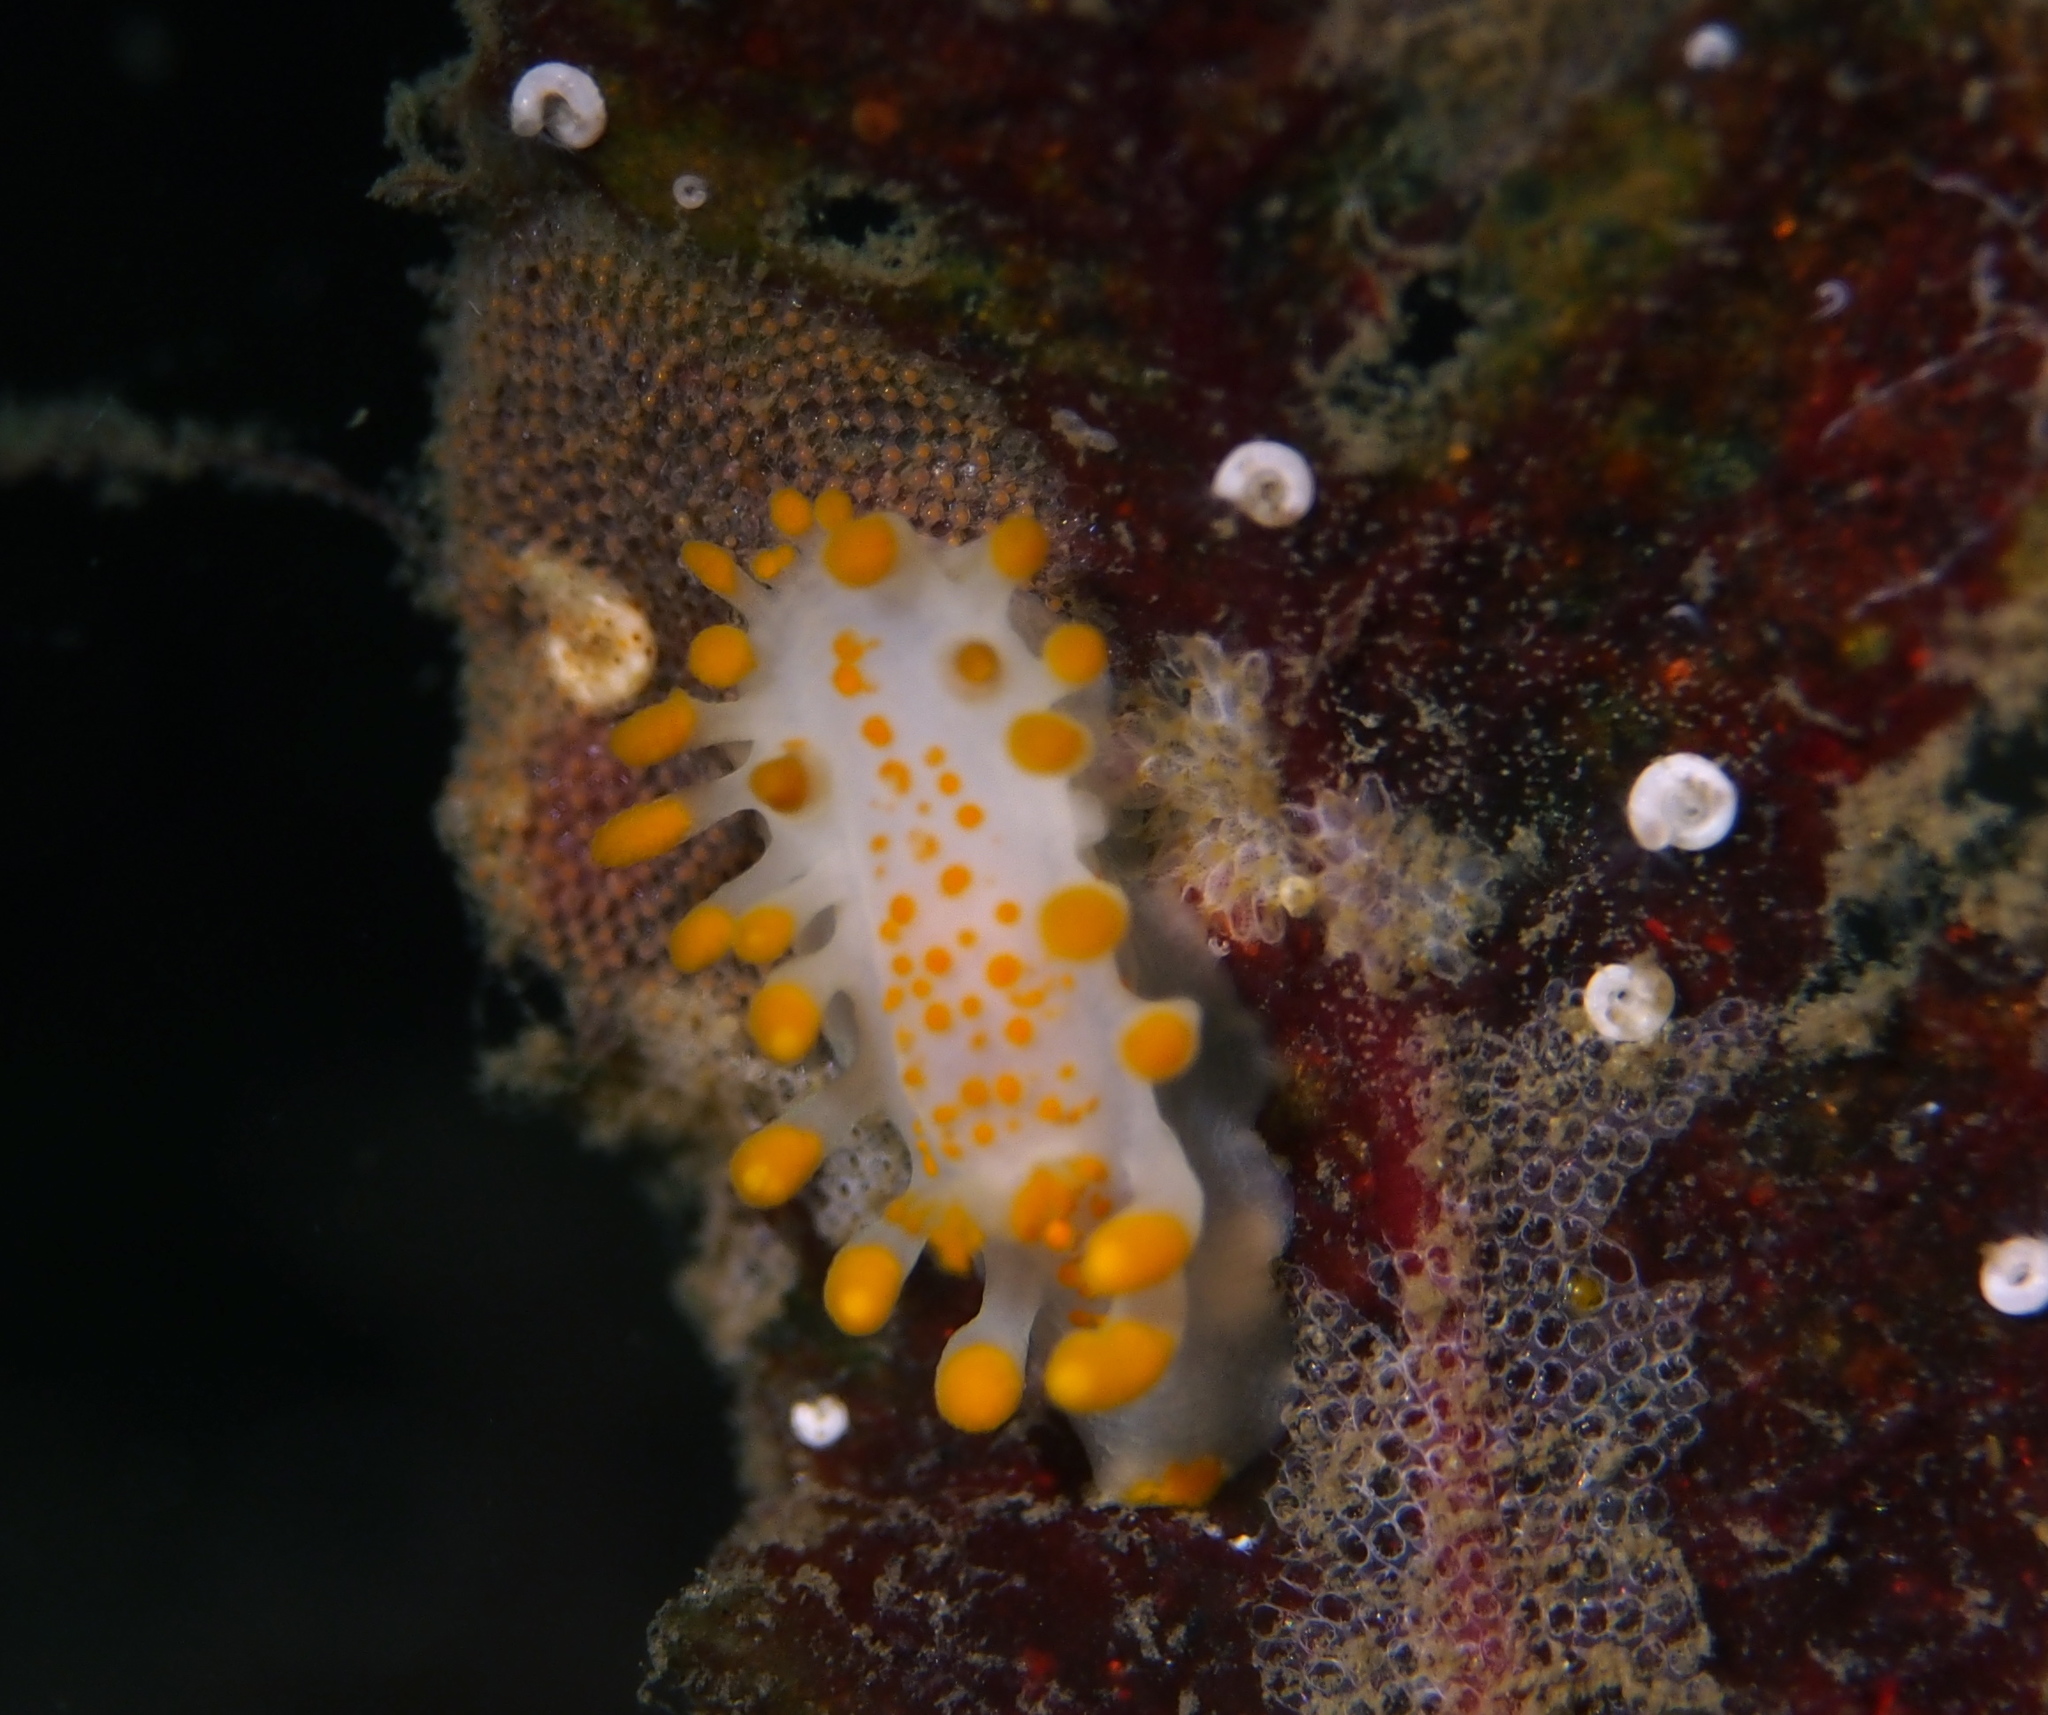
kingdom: Animalia
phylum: Mollusca
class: Gastropoda
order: Nudibranchia
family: Polyceridae
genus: Limacia
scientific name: Limacia clavigera
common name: Orange-clubbed sea slug
